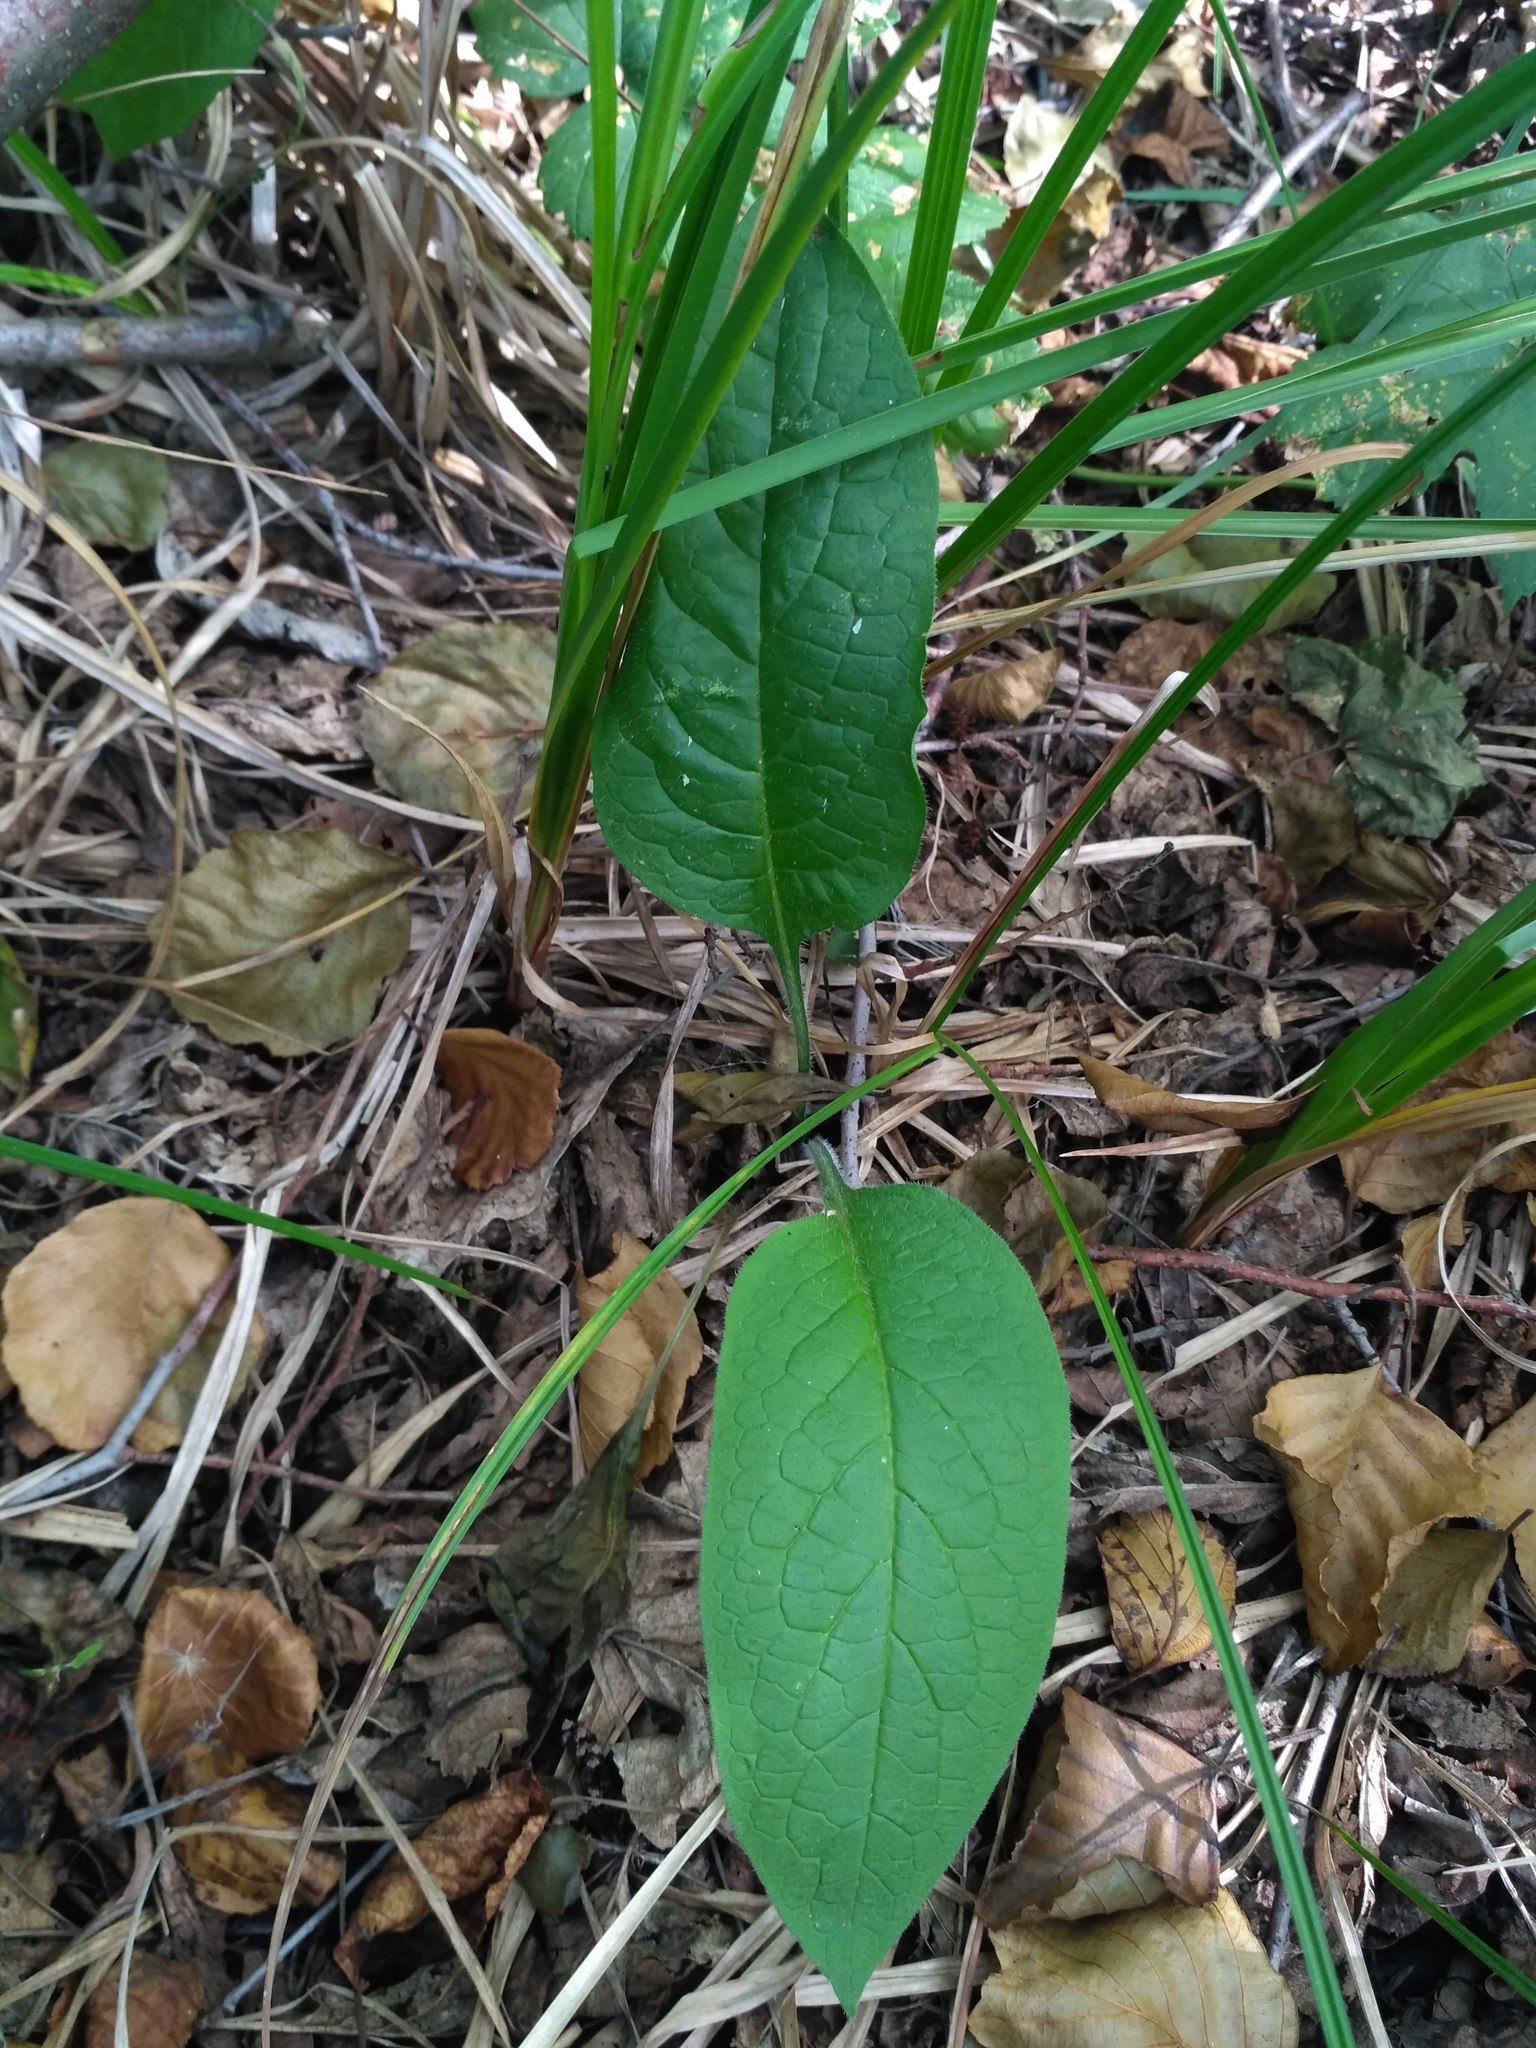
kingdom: Plantae
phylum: Tracheophyta
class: Magnoliopsida
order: Boraginales
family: Boraginaceae
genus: Symphytum
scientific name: Symphytum officinale
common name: Common comfrey
